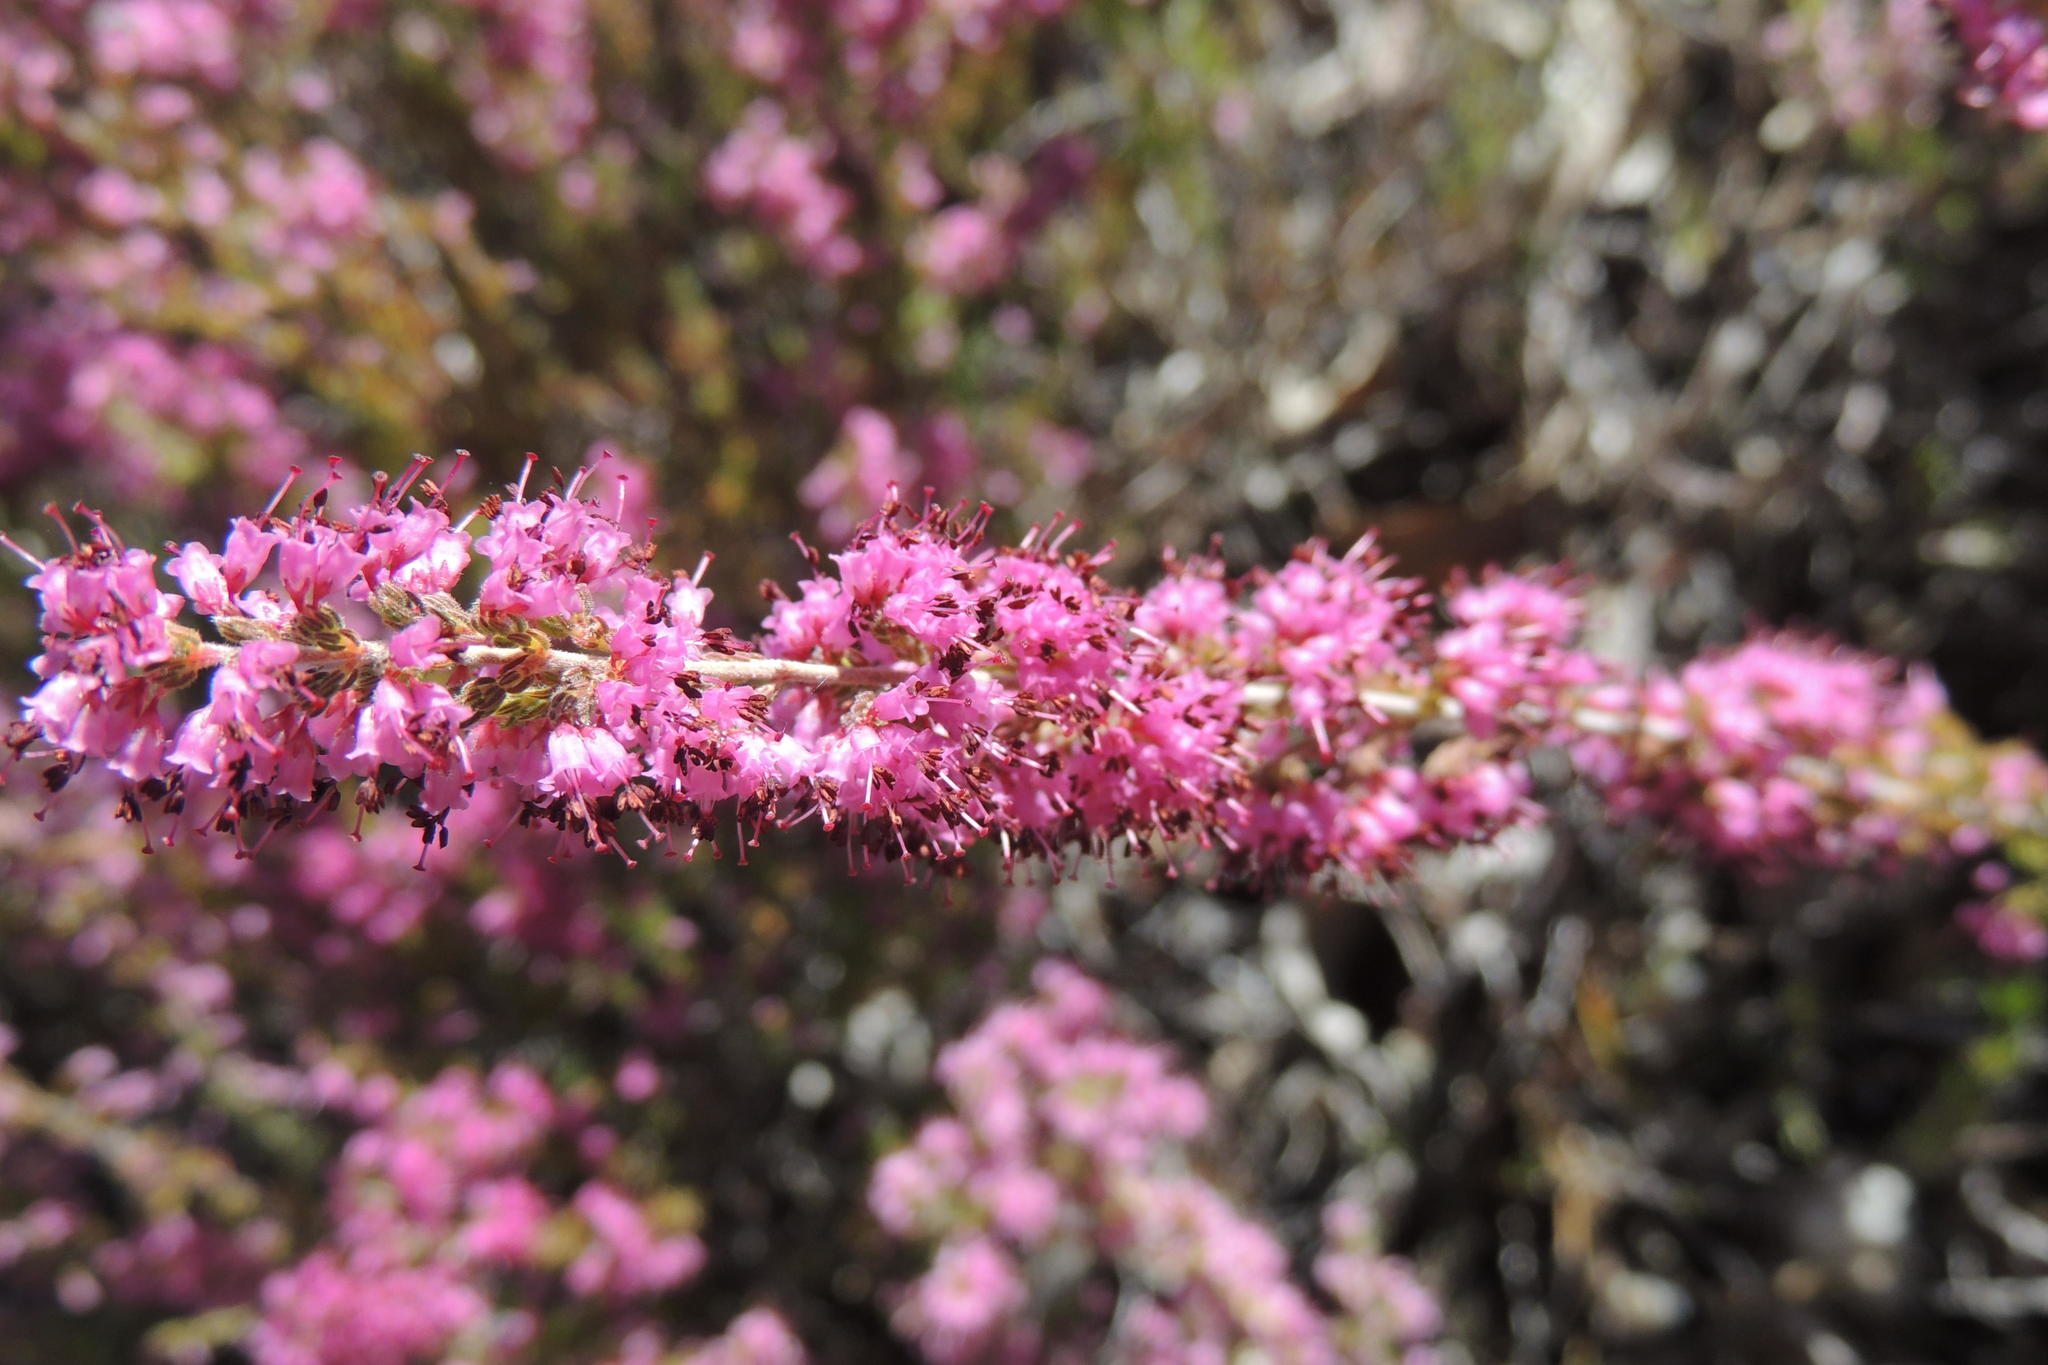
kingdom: Plantae
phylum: Tracheophyta
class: Magnoliopsida
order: Ericales
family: Ericaceae
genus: Erica
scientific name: Erica anguliger
